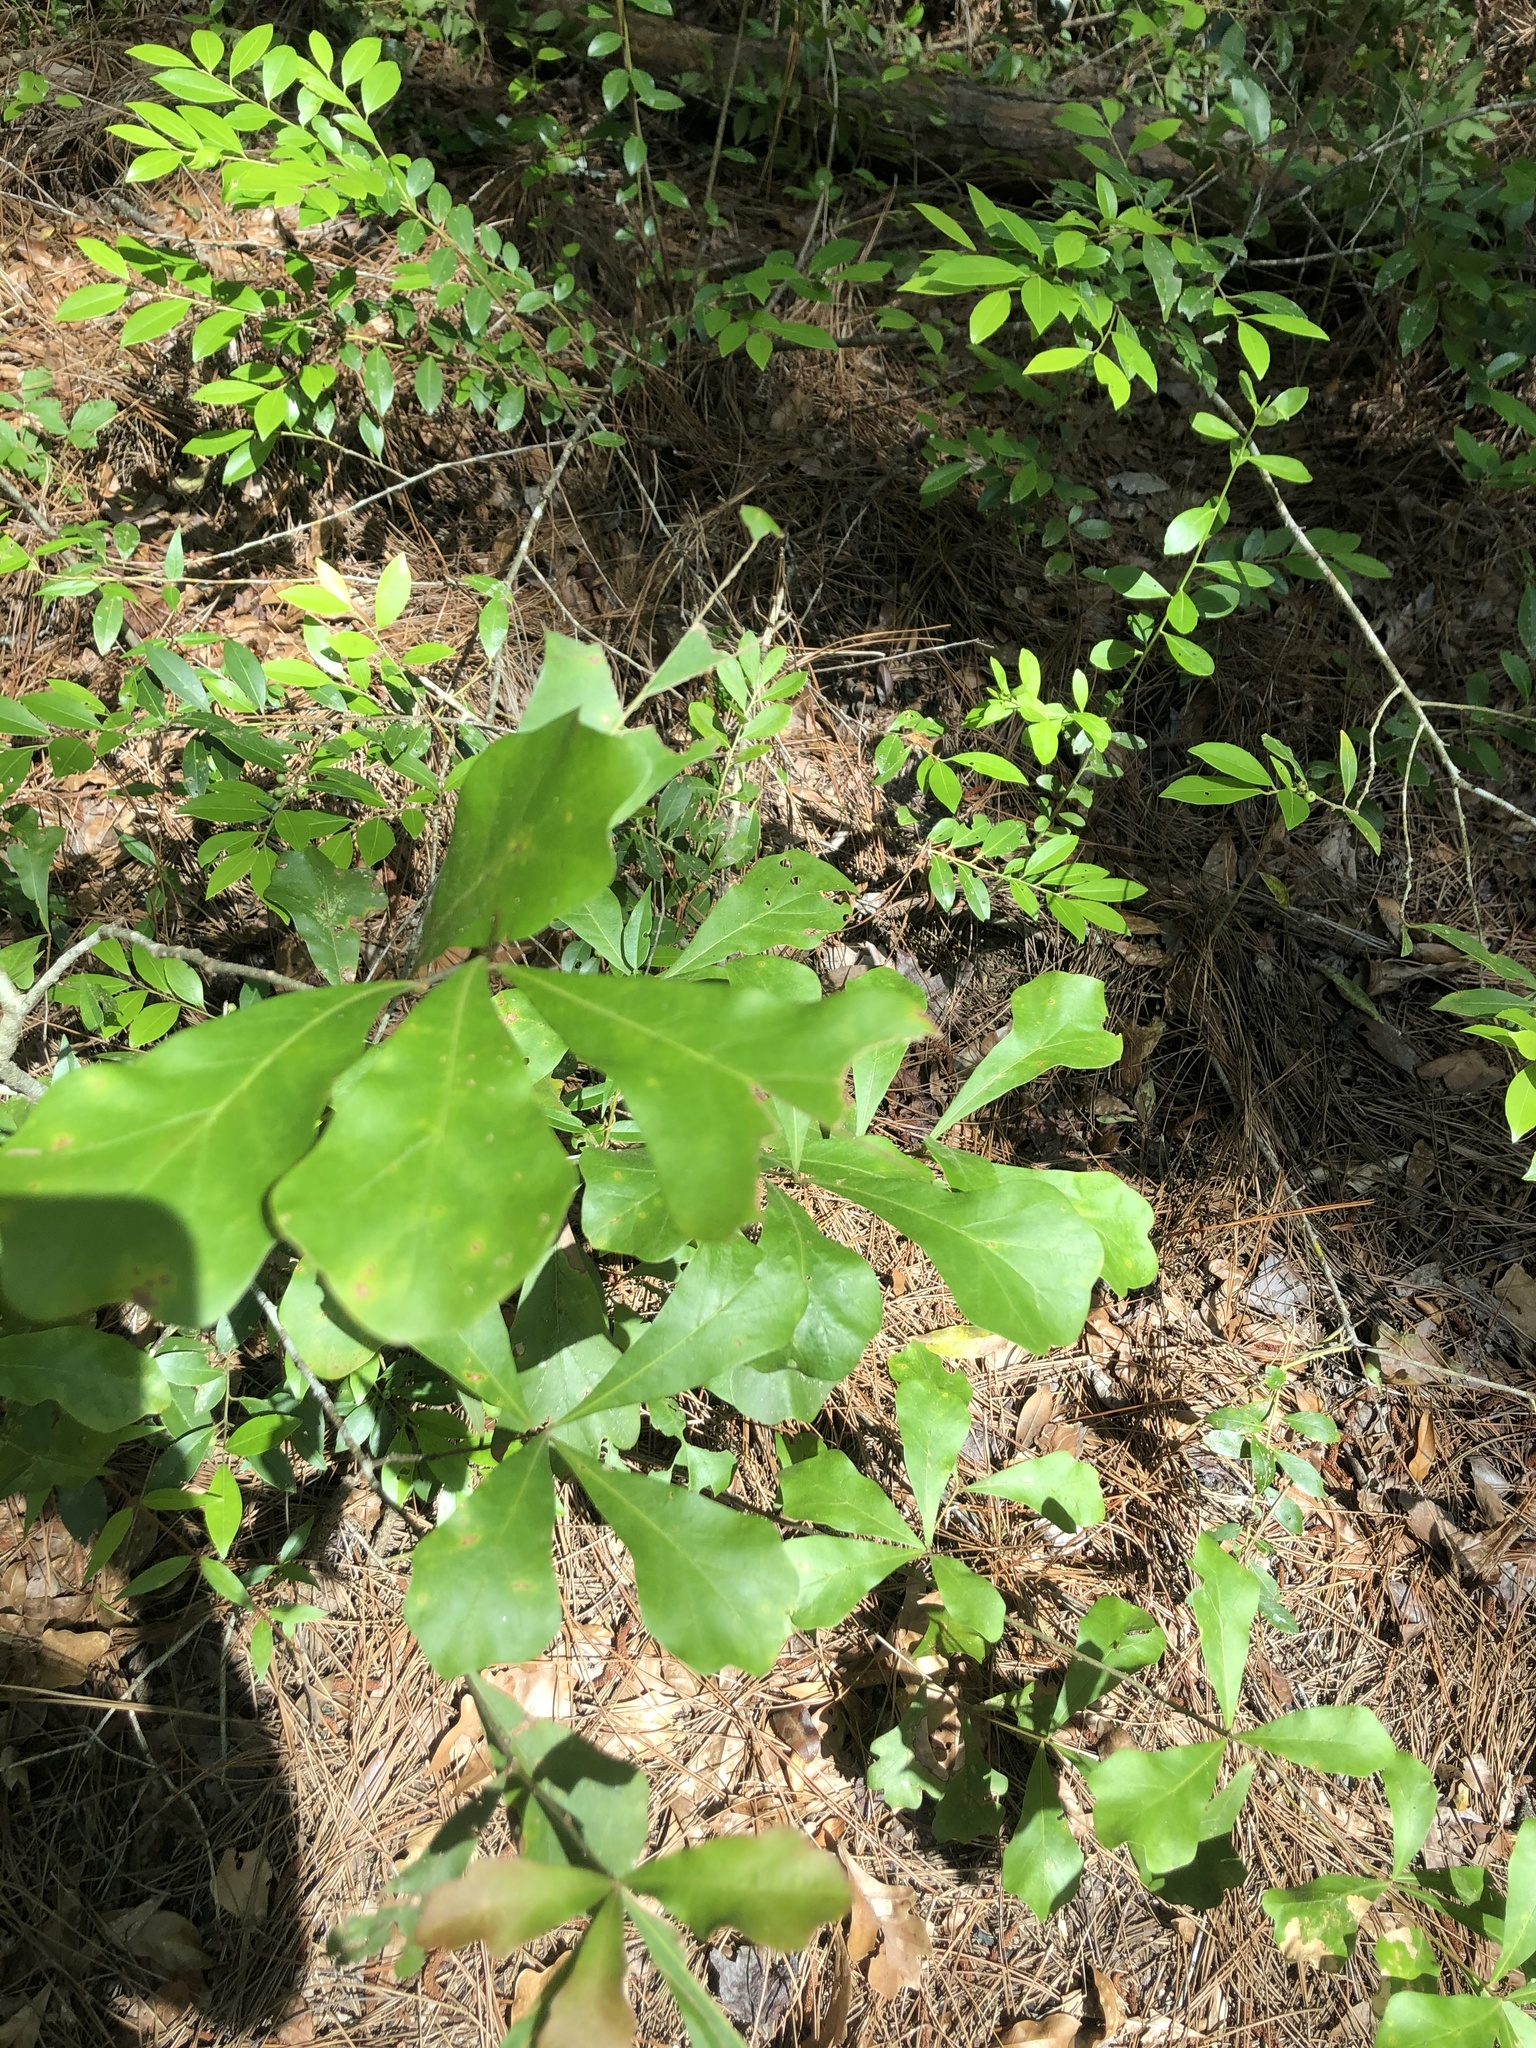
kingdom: Plantae
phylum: Tracheophyta
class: Magnoliopsida
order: Fagales
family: Fagaceae
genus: Quercus
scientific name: Quercus nigra
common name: Water oak
